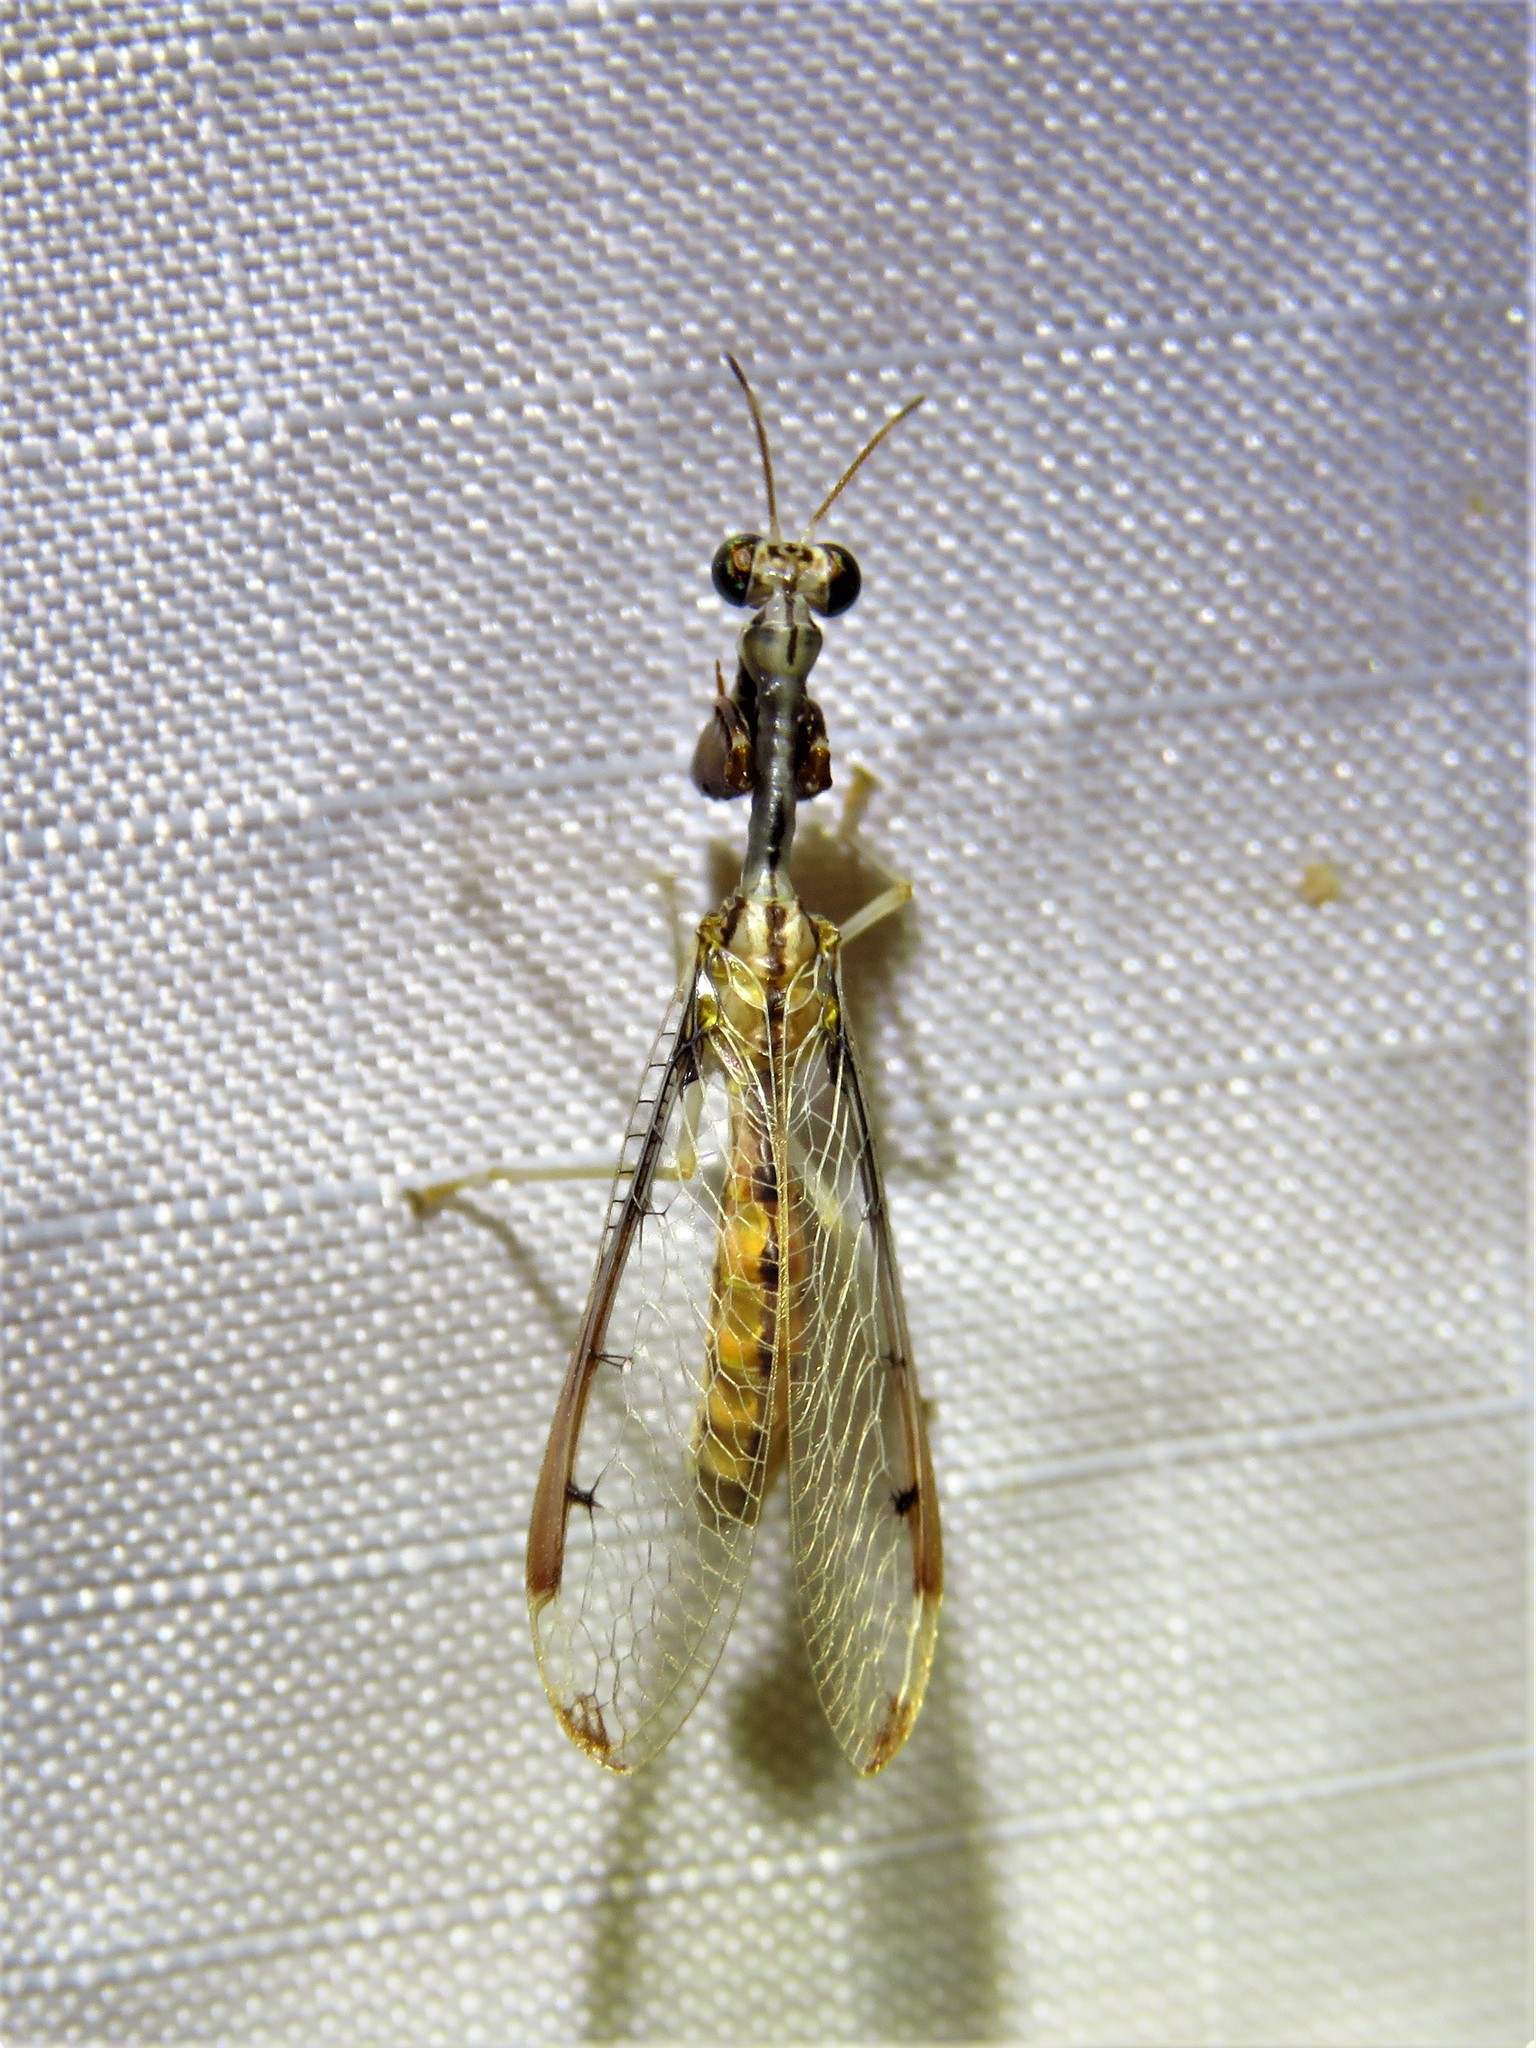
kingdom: Animalia
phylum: Arthropoda
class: Insecta
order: Neuroptera
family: Mantispidae
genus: Dicromantispa
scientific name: Dicromantispa interrupta
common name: Four-spotted mantidfly
